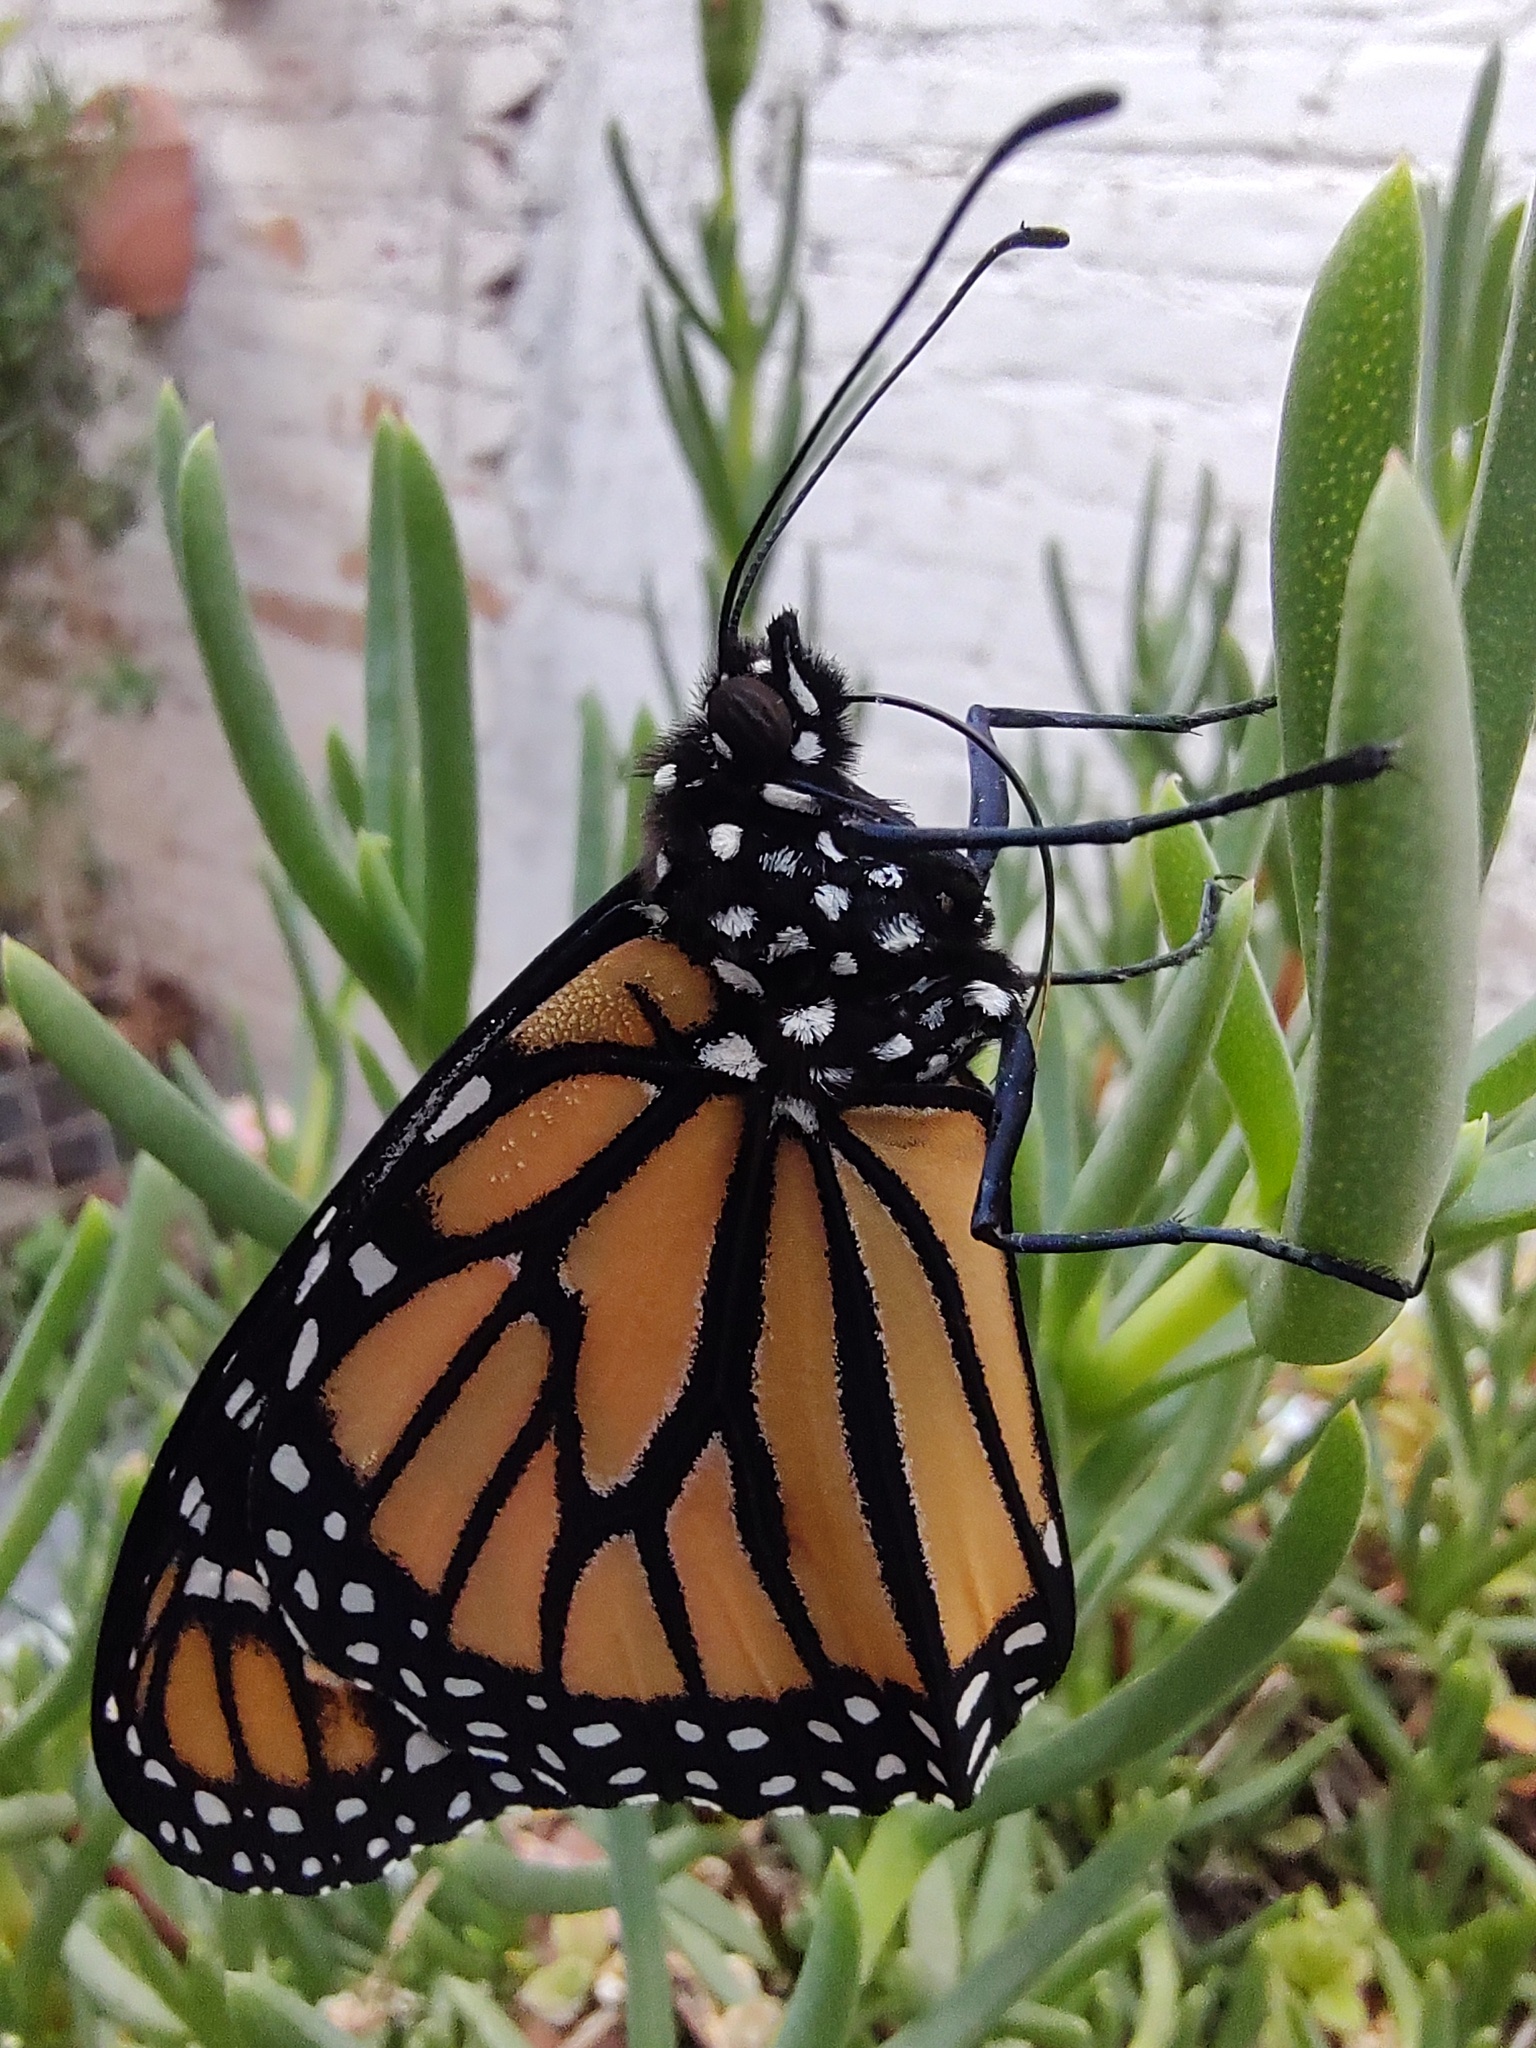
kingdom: Animalia
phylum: Arthropoda
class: Insecta
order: Lepidoptera
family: Nymphalidae
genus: Danaus
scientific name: Danaus plexippus
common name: Monarch
